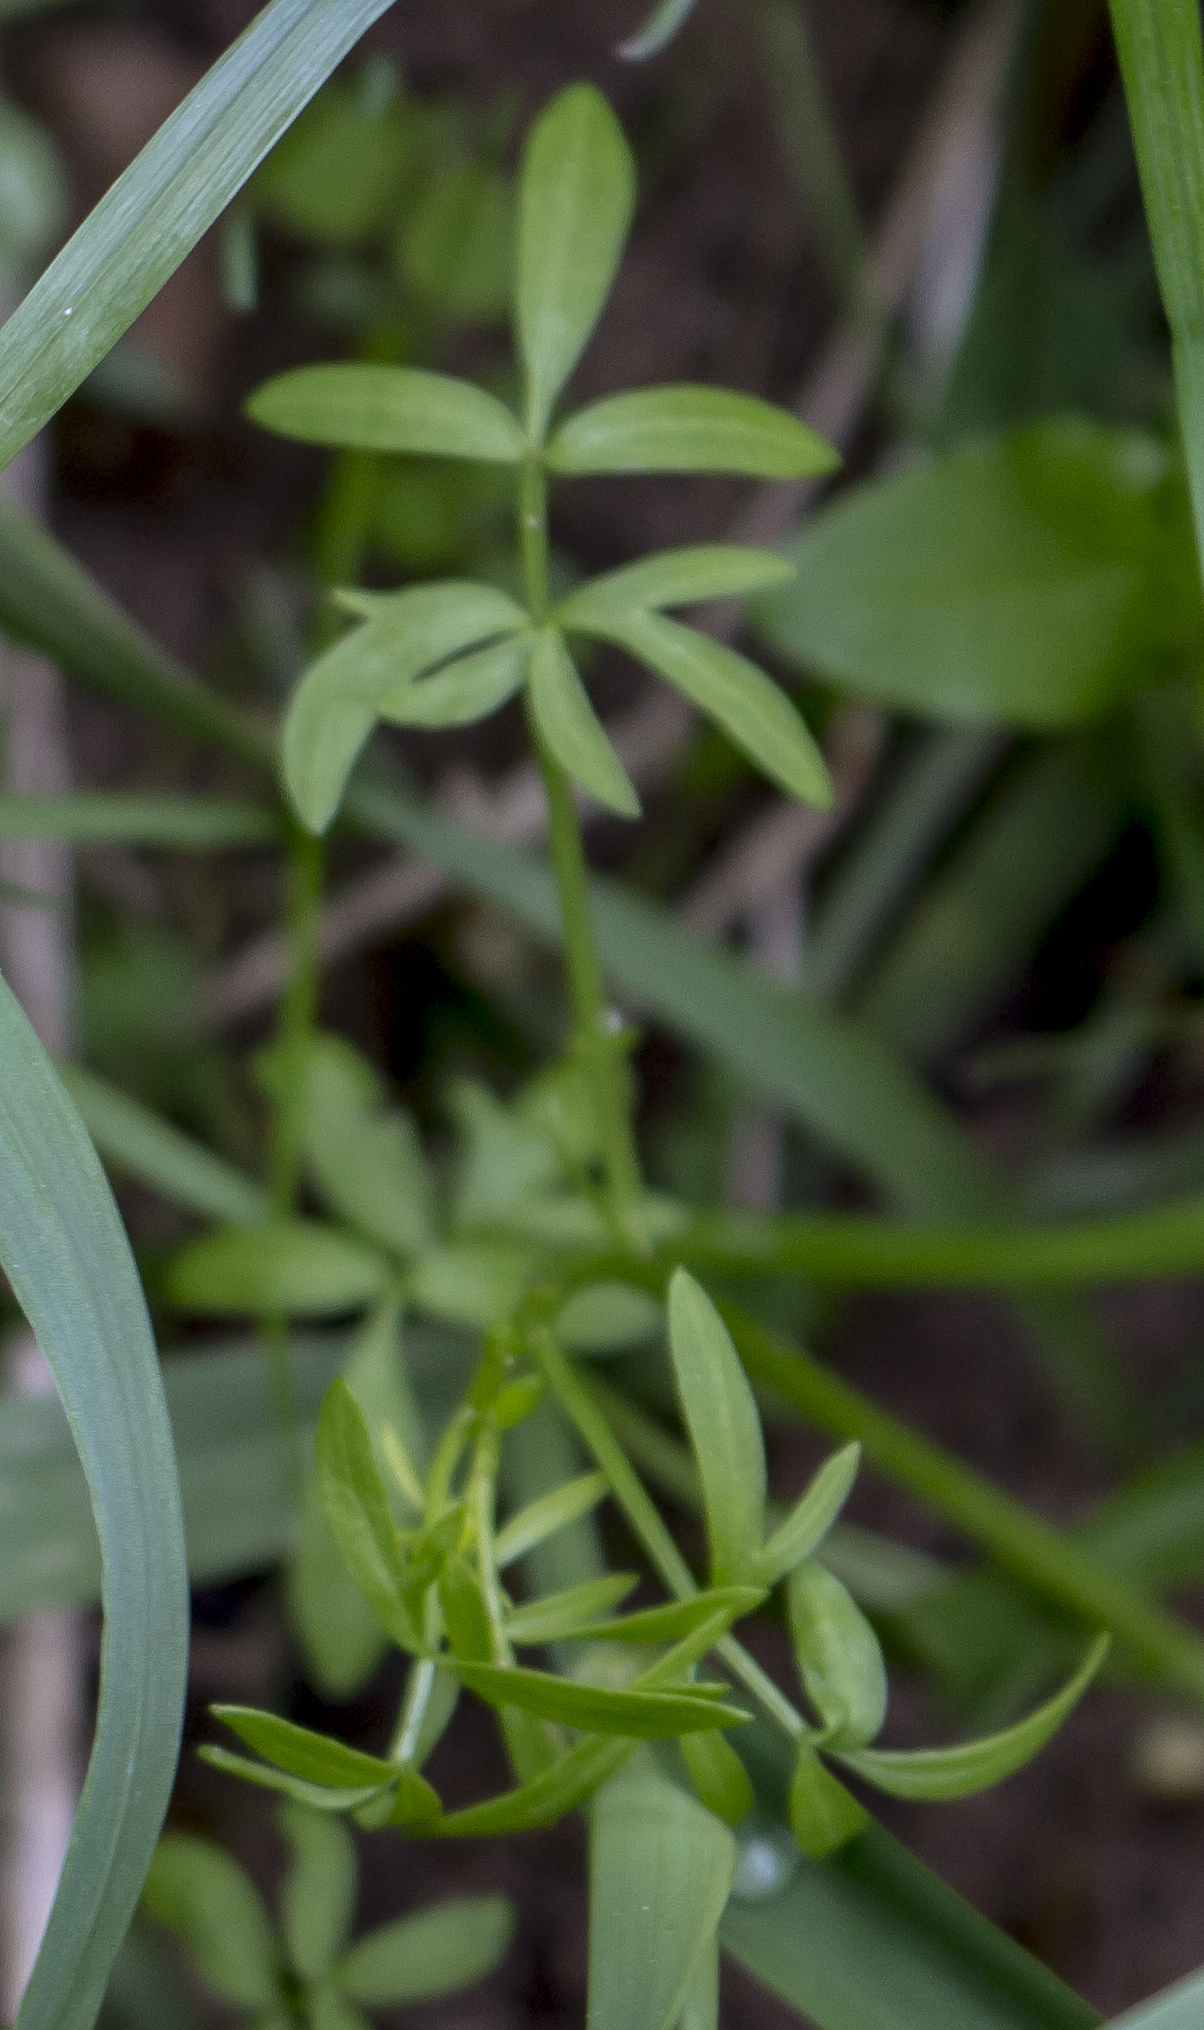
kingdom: Plantae
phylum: Tracheophyta
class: Magnoliopsida
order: Brassicales
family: Limnanthaceae
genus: Floerkea
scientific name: Floerkea proserpinacoides
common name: False mermaid
